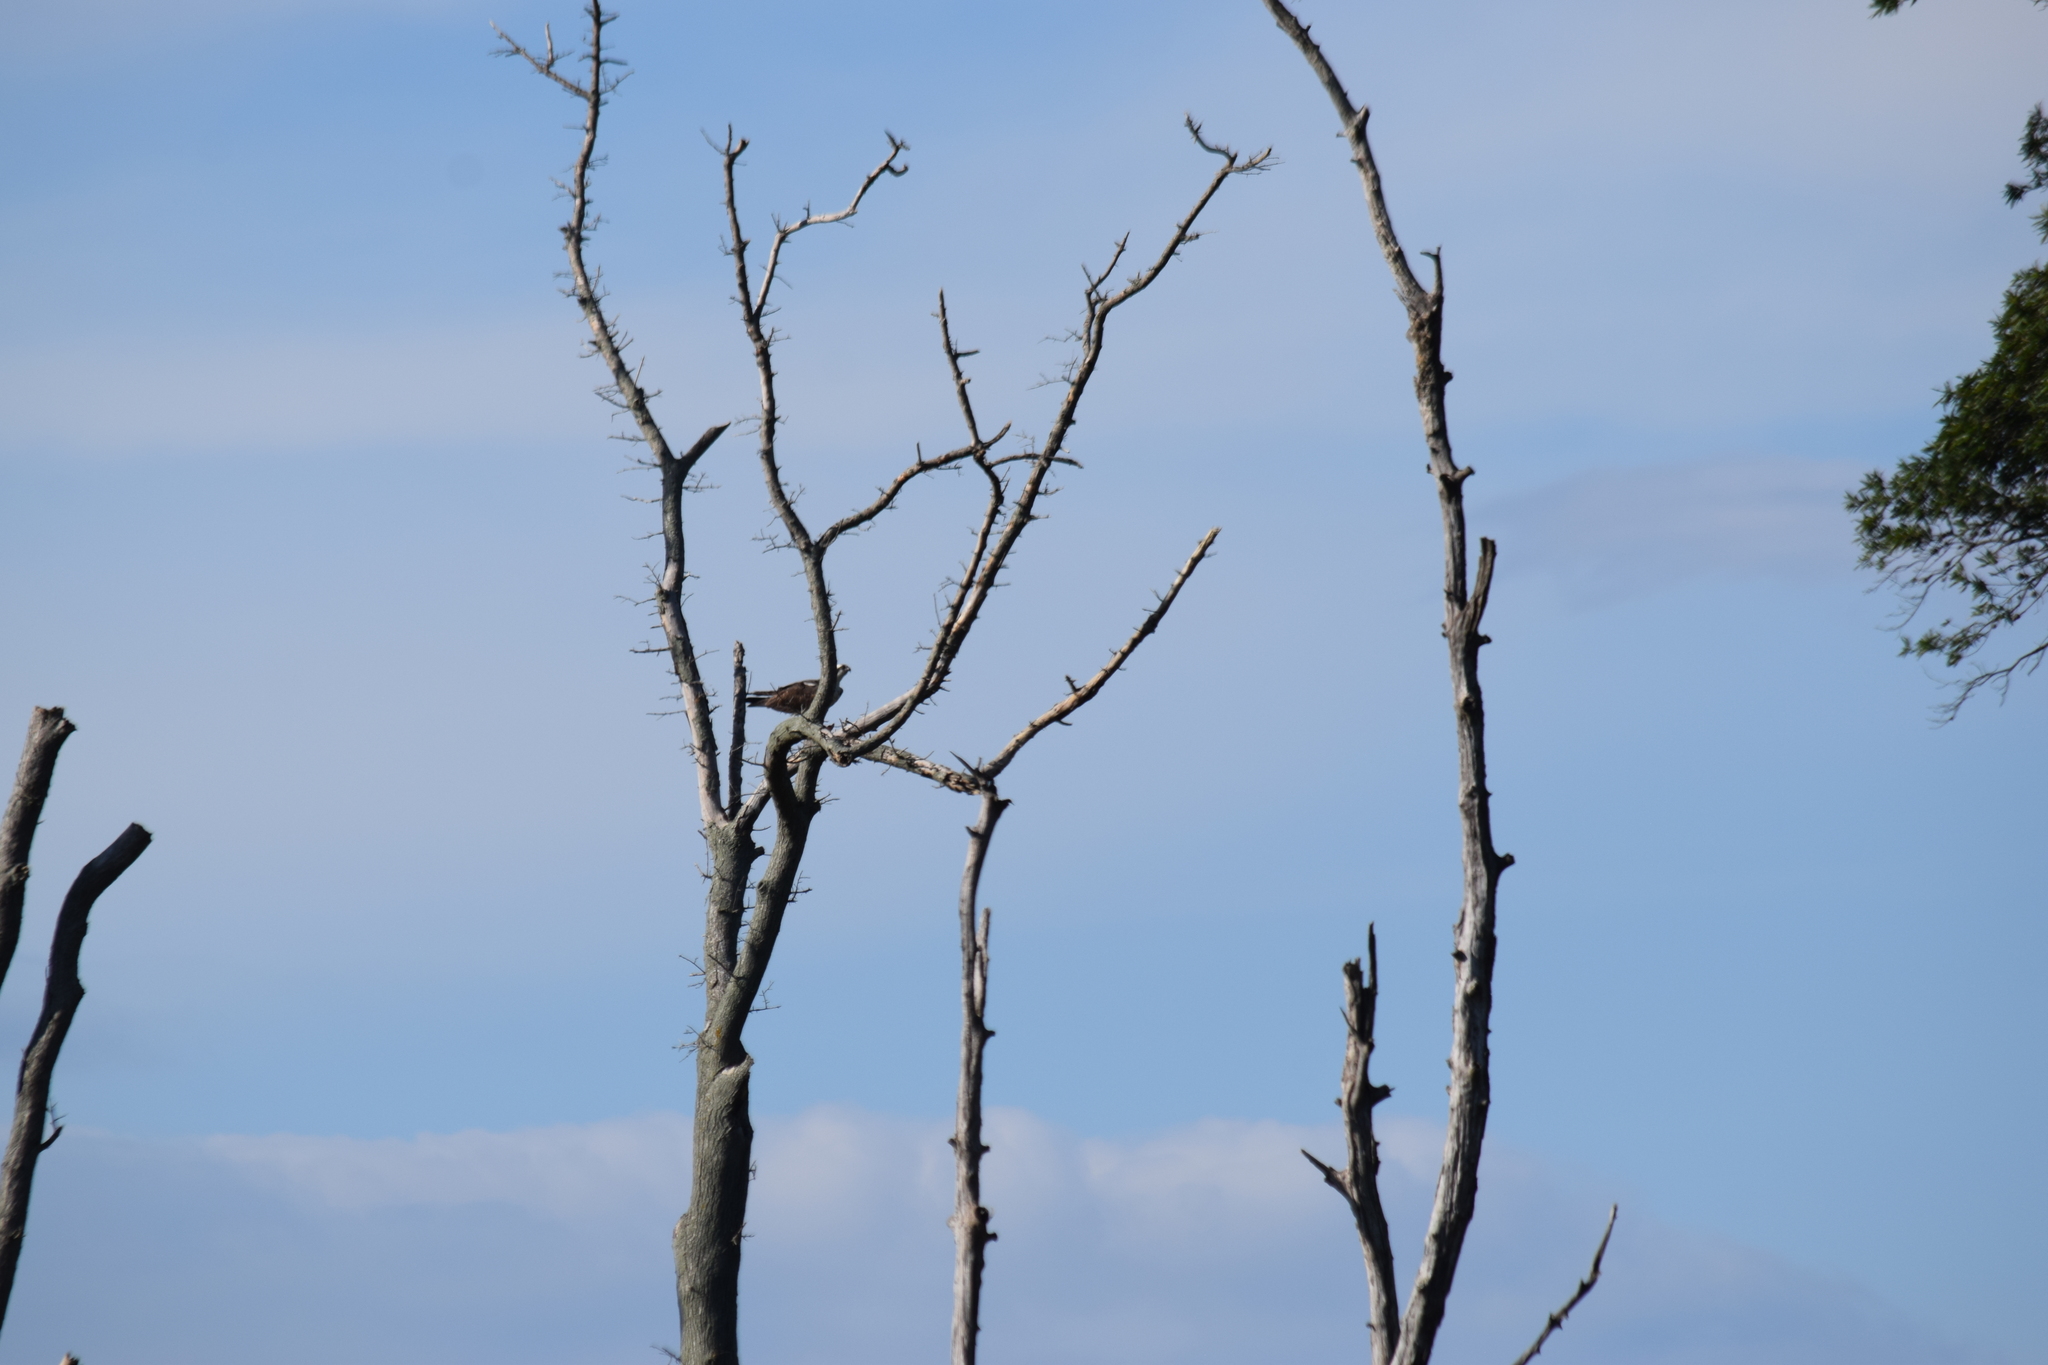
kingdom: Animalia
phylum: Chordata
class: Aves
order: Accipitriformes
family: Pandionidae
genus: Pandion
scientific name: Pandion haliaetus
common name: Osprey
